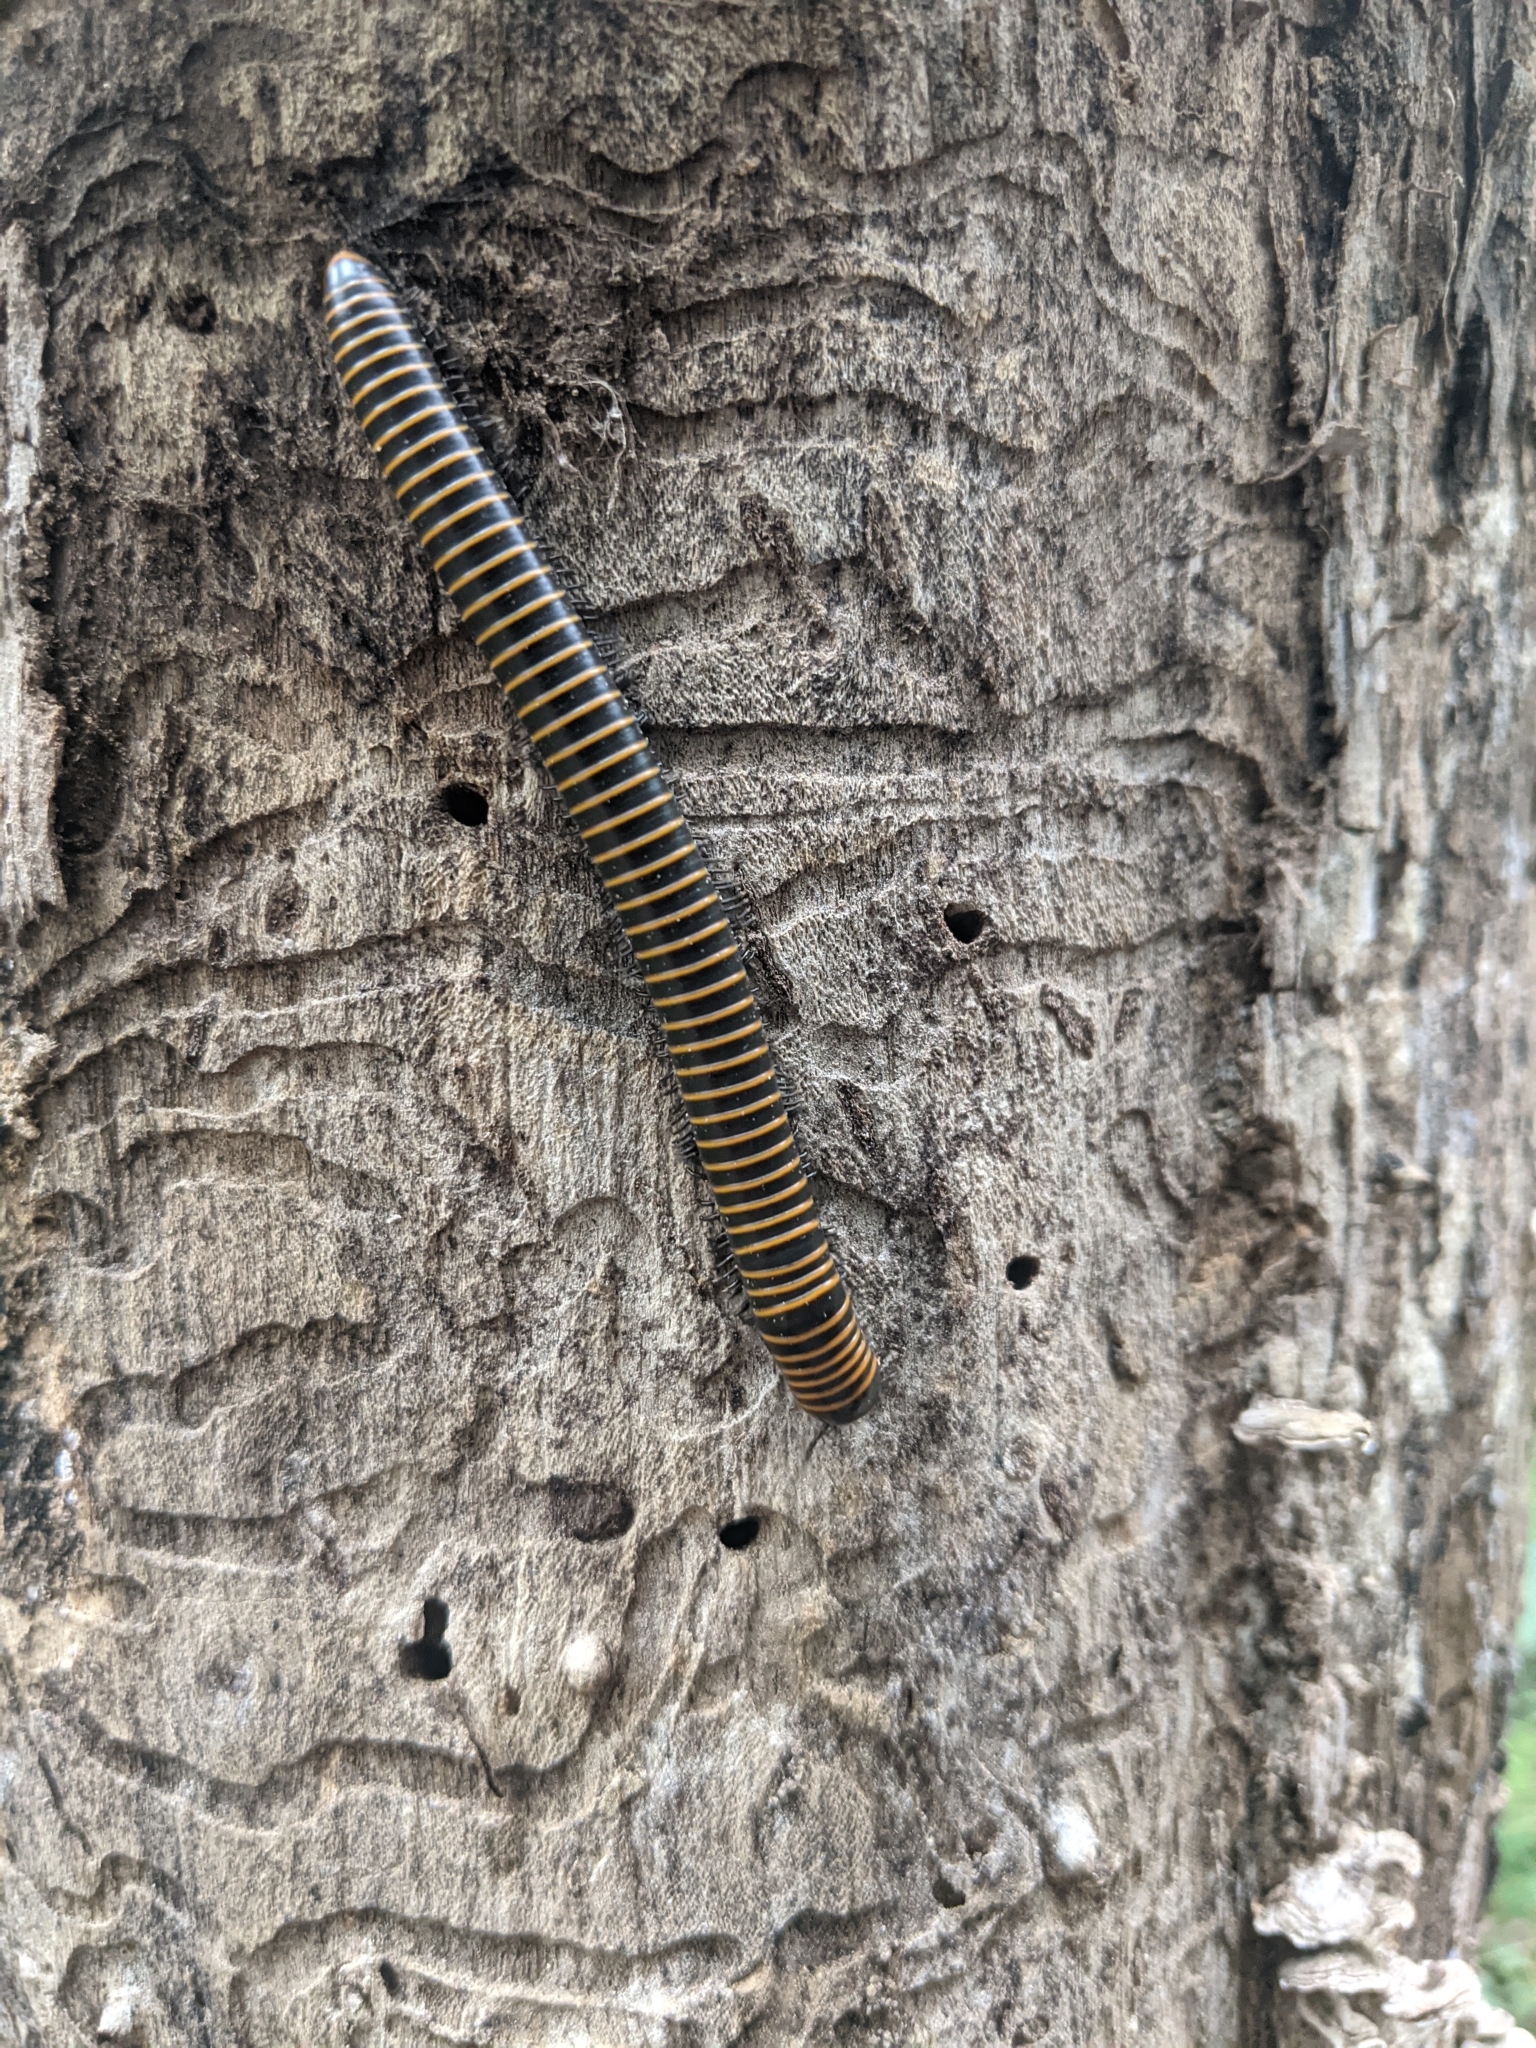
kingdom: Animalia
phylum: Arthropoda
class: Diplopoda
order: Spirobolida
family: Spirobolidae
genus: Spirobolus
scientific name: Spirobolus bungii
